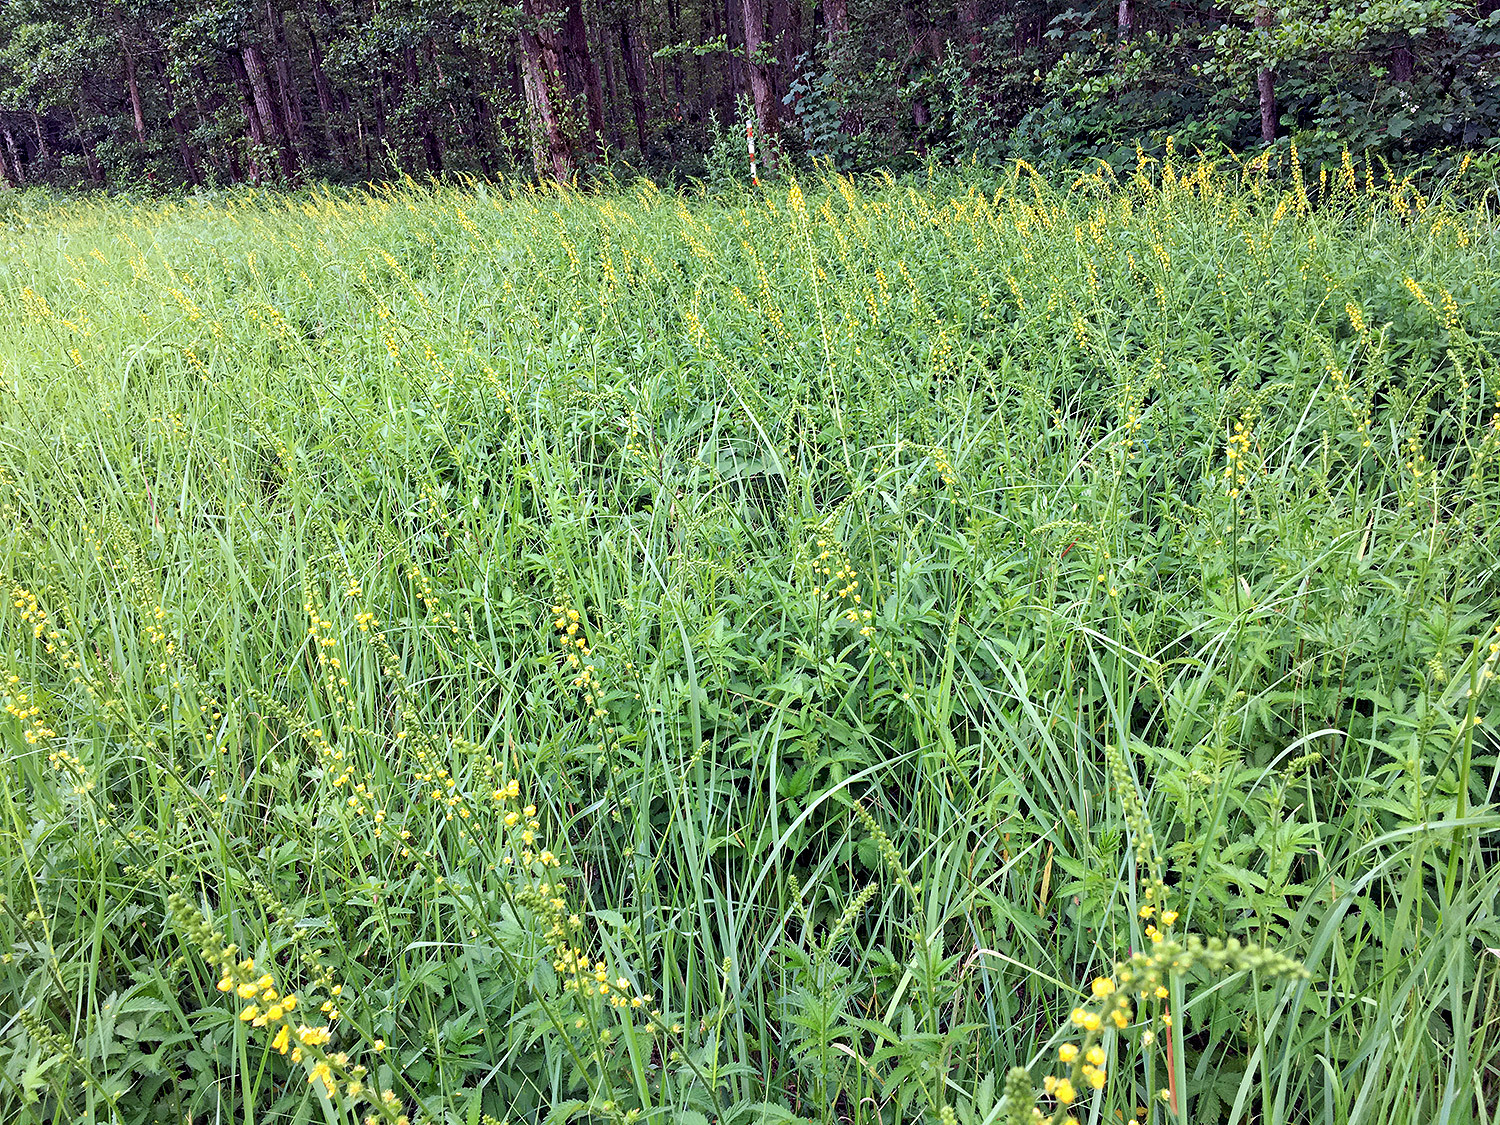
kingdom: Plantae
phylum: Tracheophyta
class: Magnoliopsida
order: Rosales
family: Rosaceae
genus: Agrimonia
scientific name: Agrimonia eupatoria
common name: Agrimony
